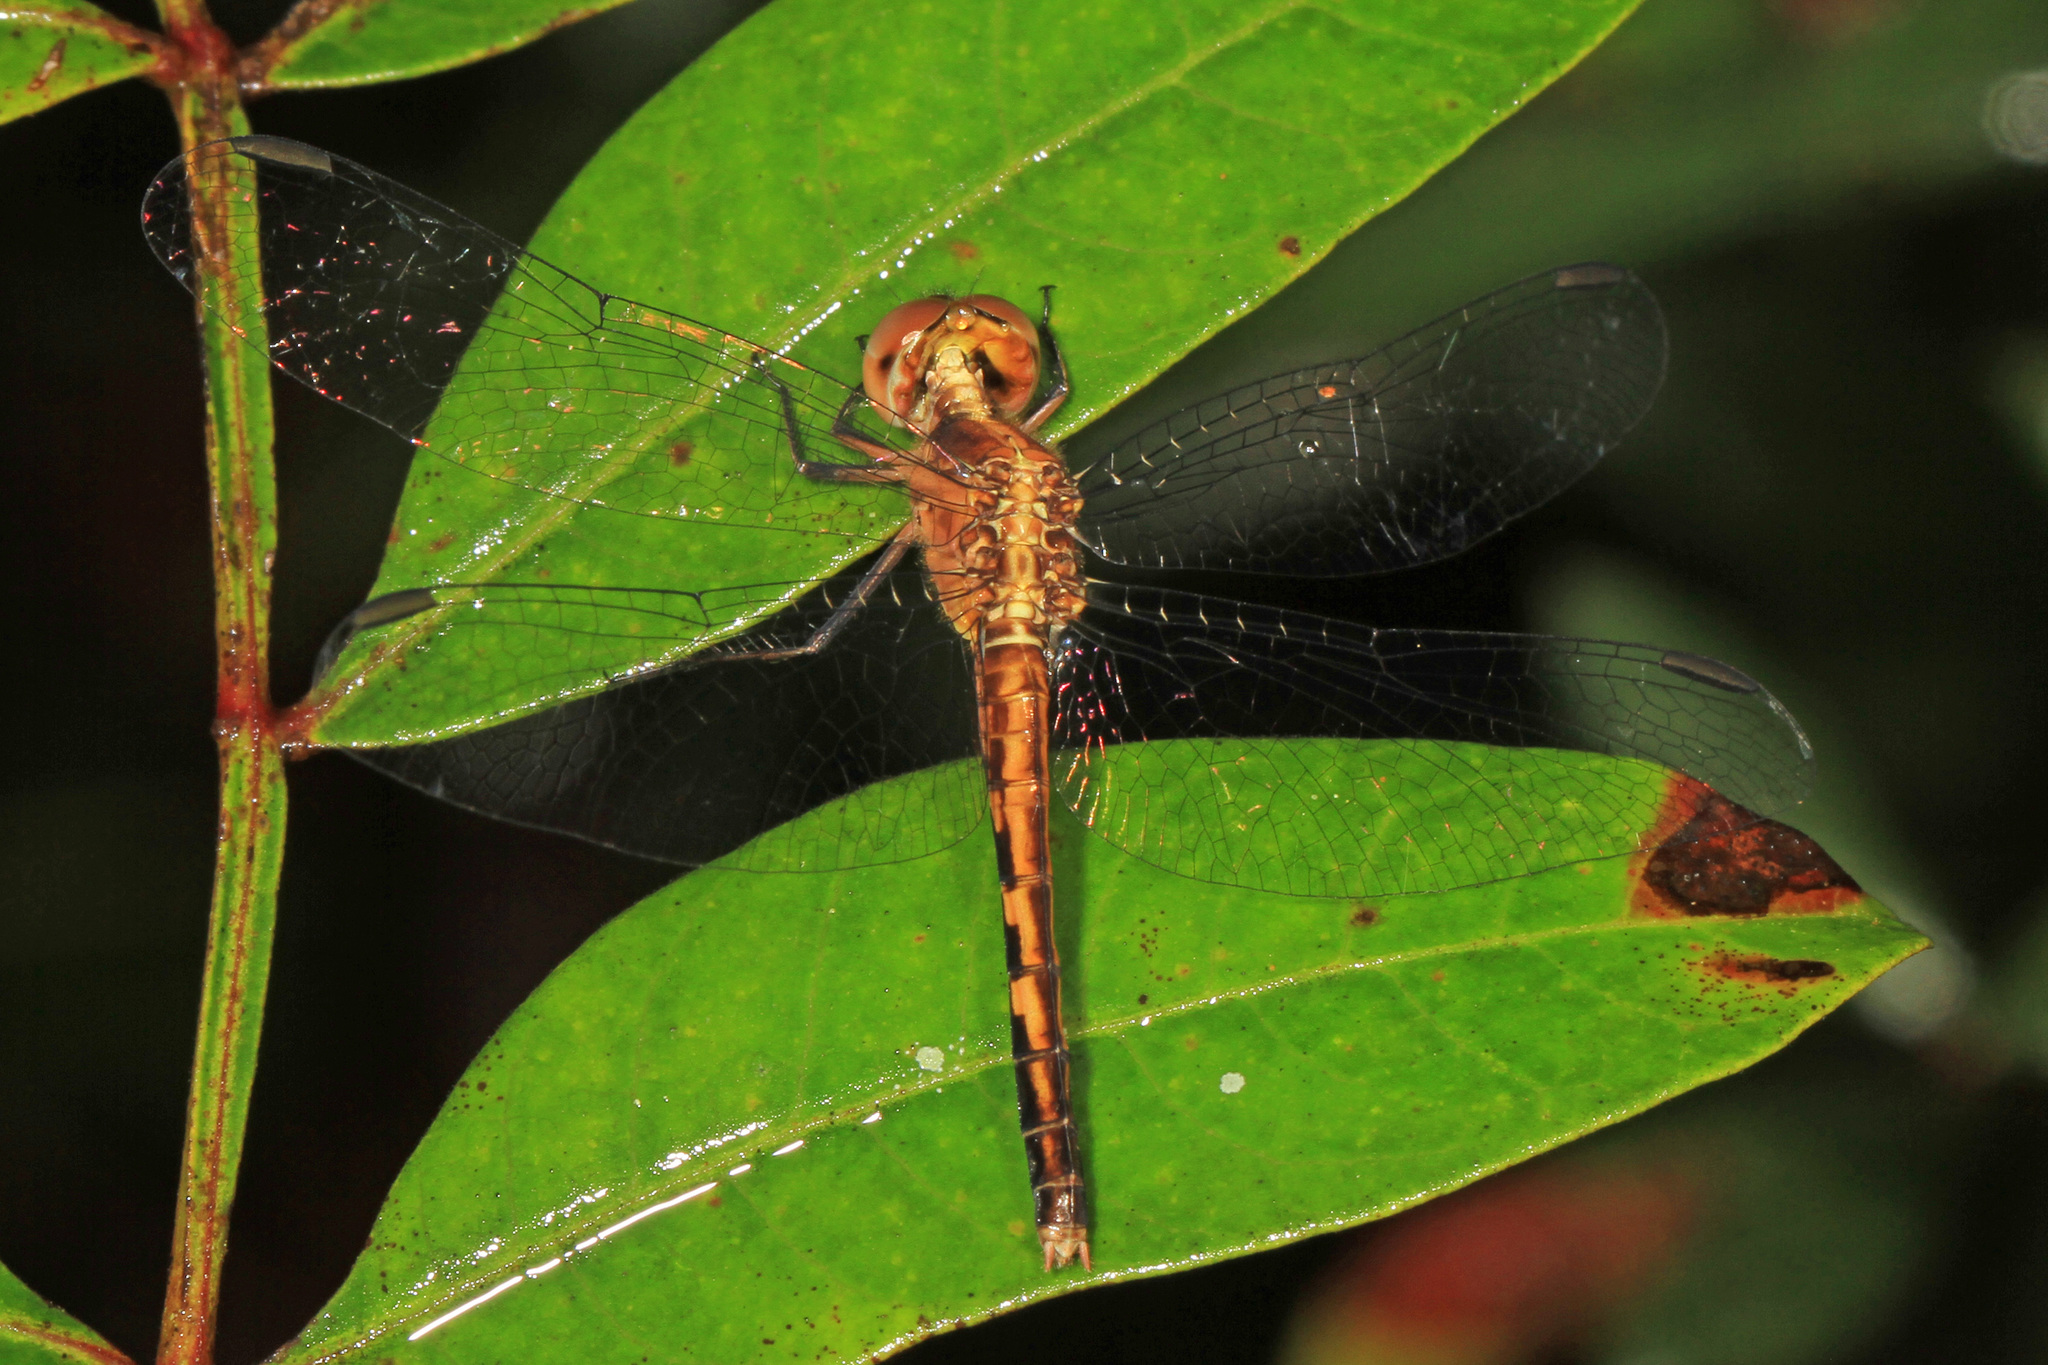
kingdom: Animalia
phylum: Arthropoda
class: Insecta
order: Odonata
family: Libellulidae
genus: Erythrodiplax
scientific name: Erythrodiplax minuscula
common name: Little blue dragonlet
